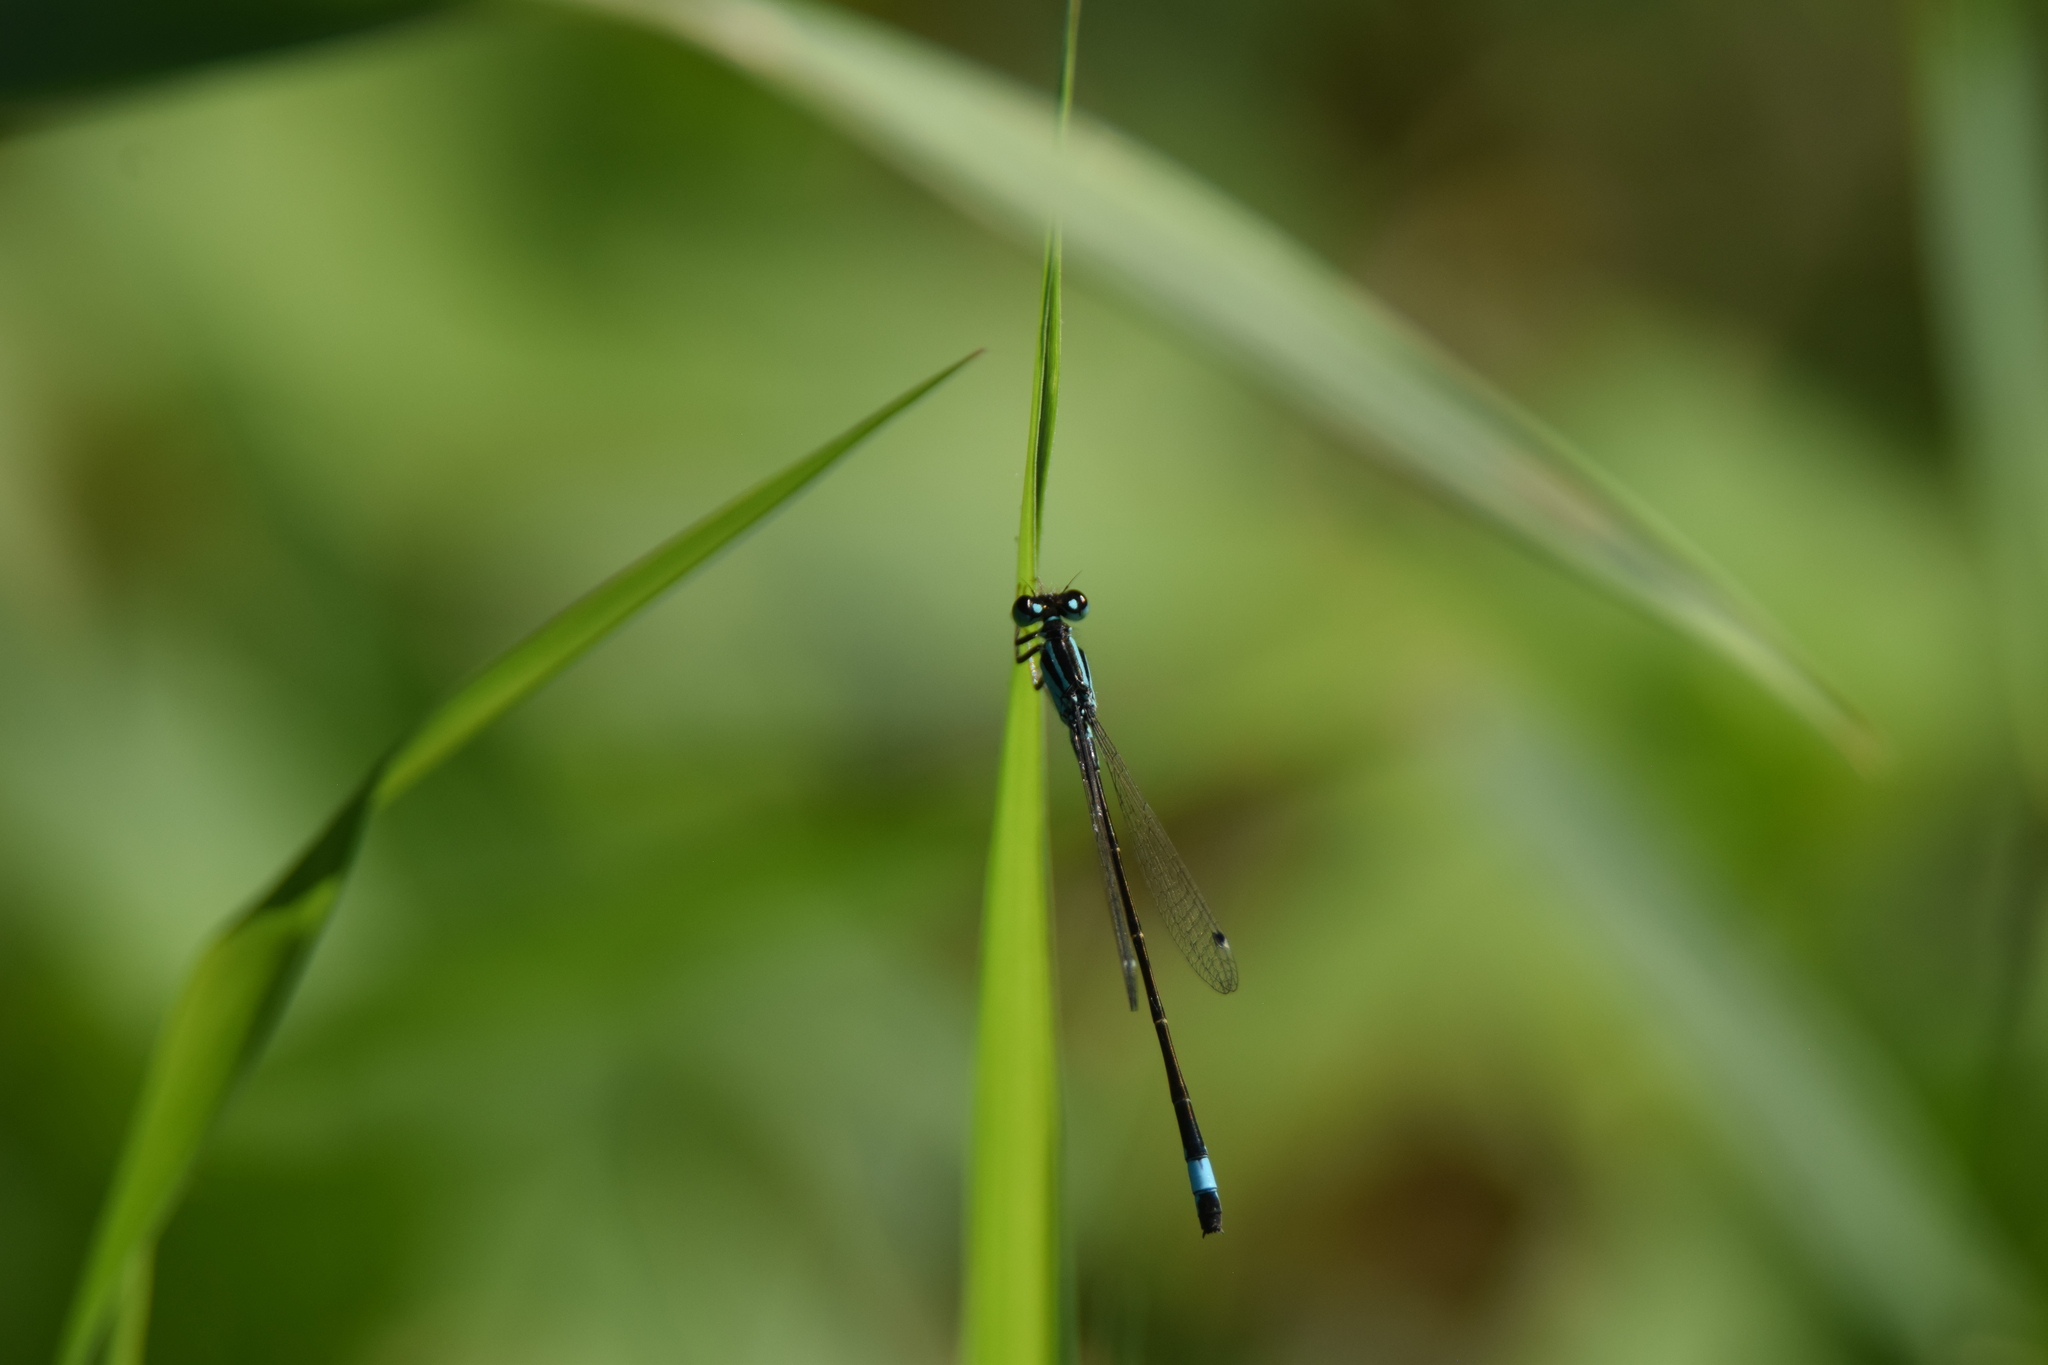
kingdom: Animalia
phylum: Arthropoda
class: Insecta
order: Odonata
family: Coenagrionidae
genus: Ischnura
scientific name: Ischnura elegans
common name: Blue-tailed damselfly
